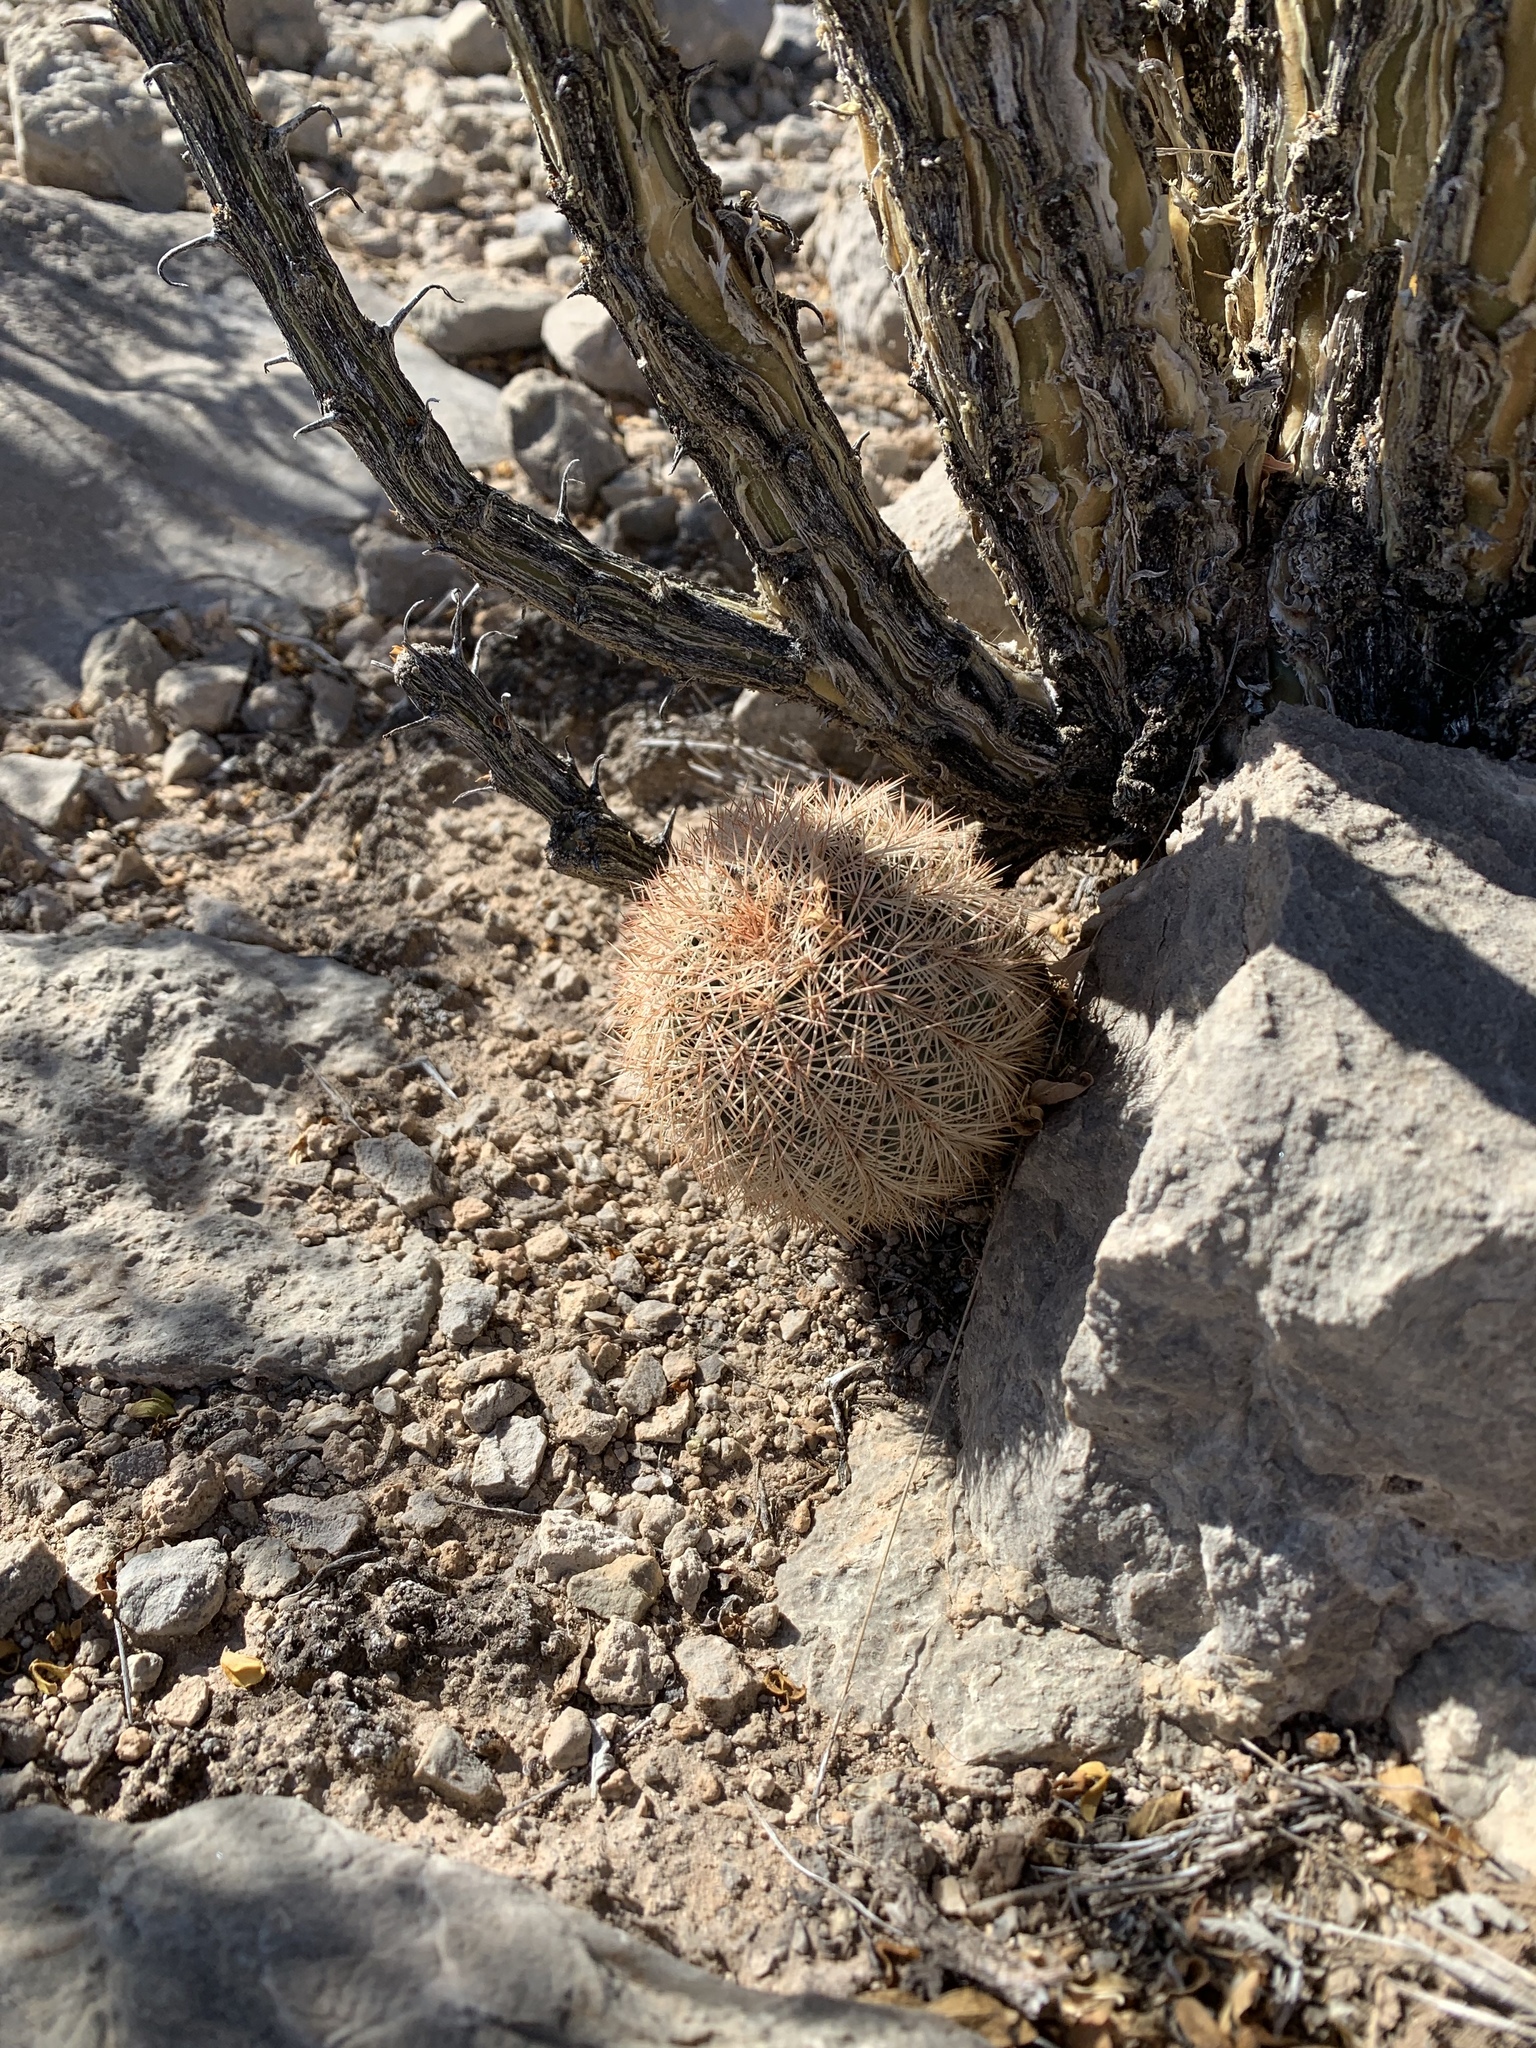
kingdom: Plantae
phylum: Tracheophyta
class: Magnoliopsida
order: Caryophyllales
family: Cactaceae
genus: Echinocereus
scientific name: Echinocereus dasyacanthus
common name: Spiny hedgehog cactus
